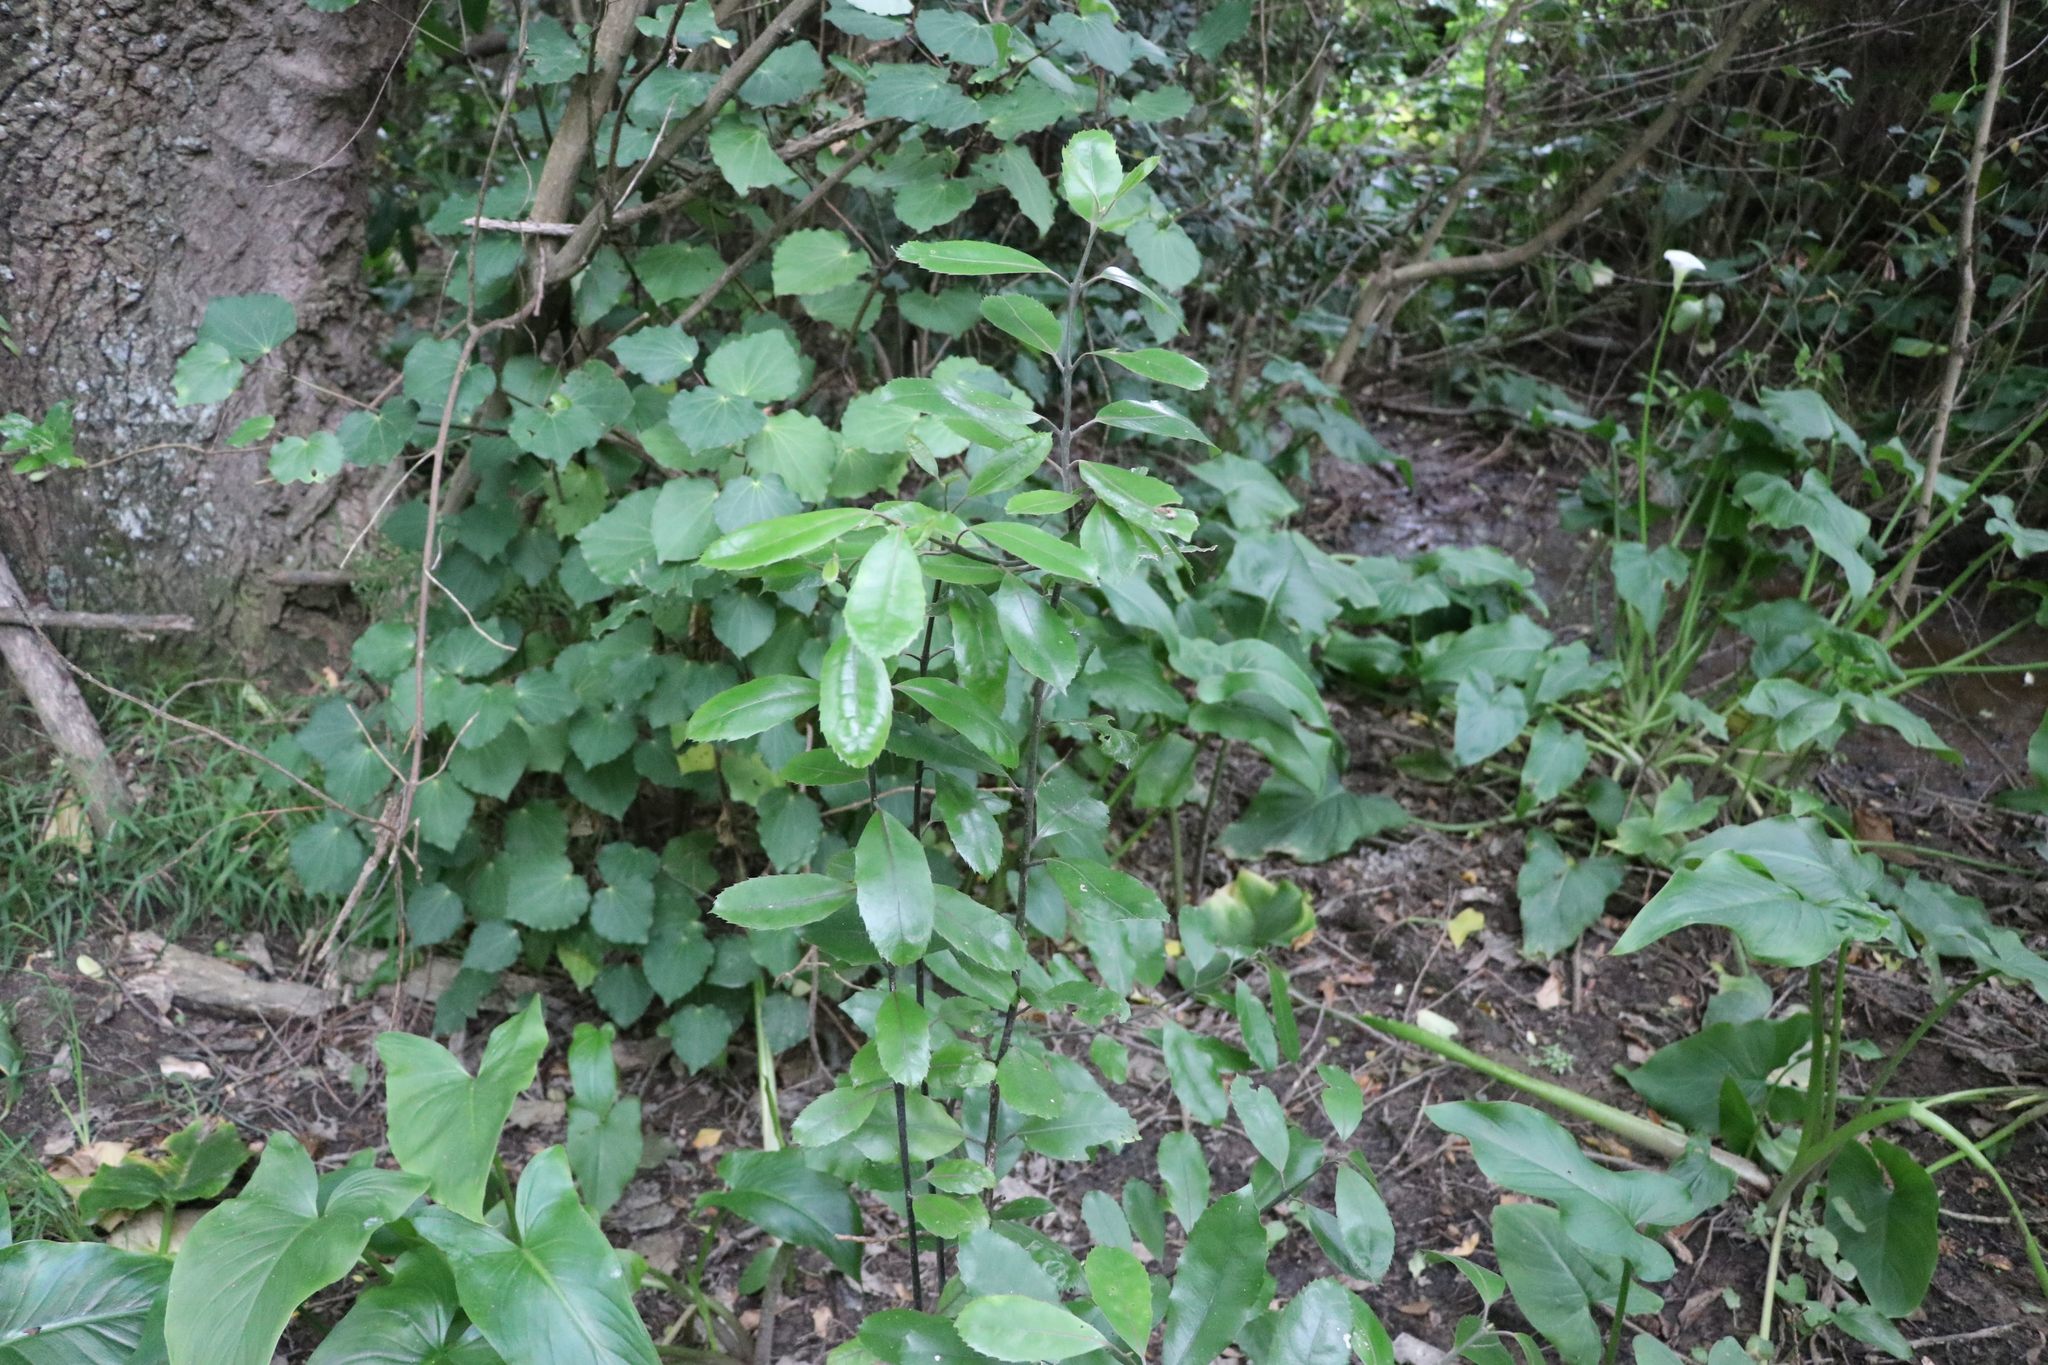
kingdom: Plantae
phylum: Tracheophyta
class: Magnoliopsida
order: Laurales
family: Monimiaceae
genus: Hedycarya
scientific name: Hedycarya arborea
